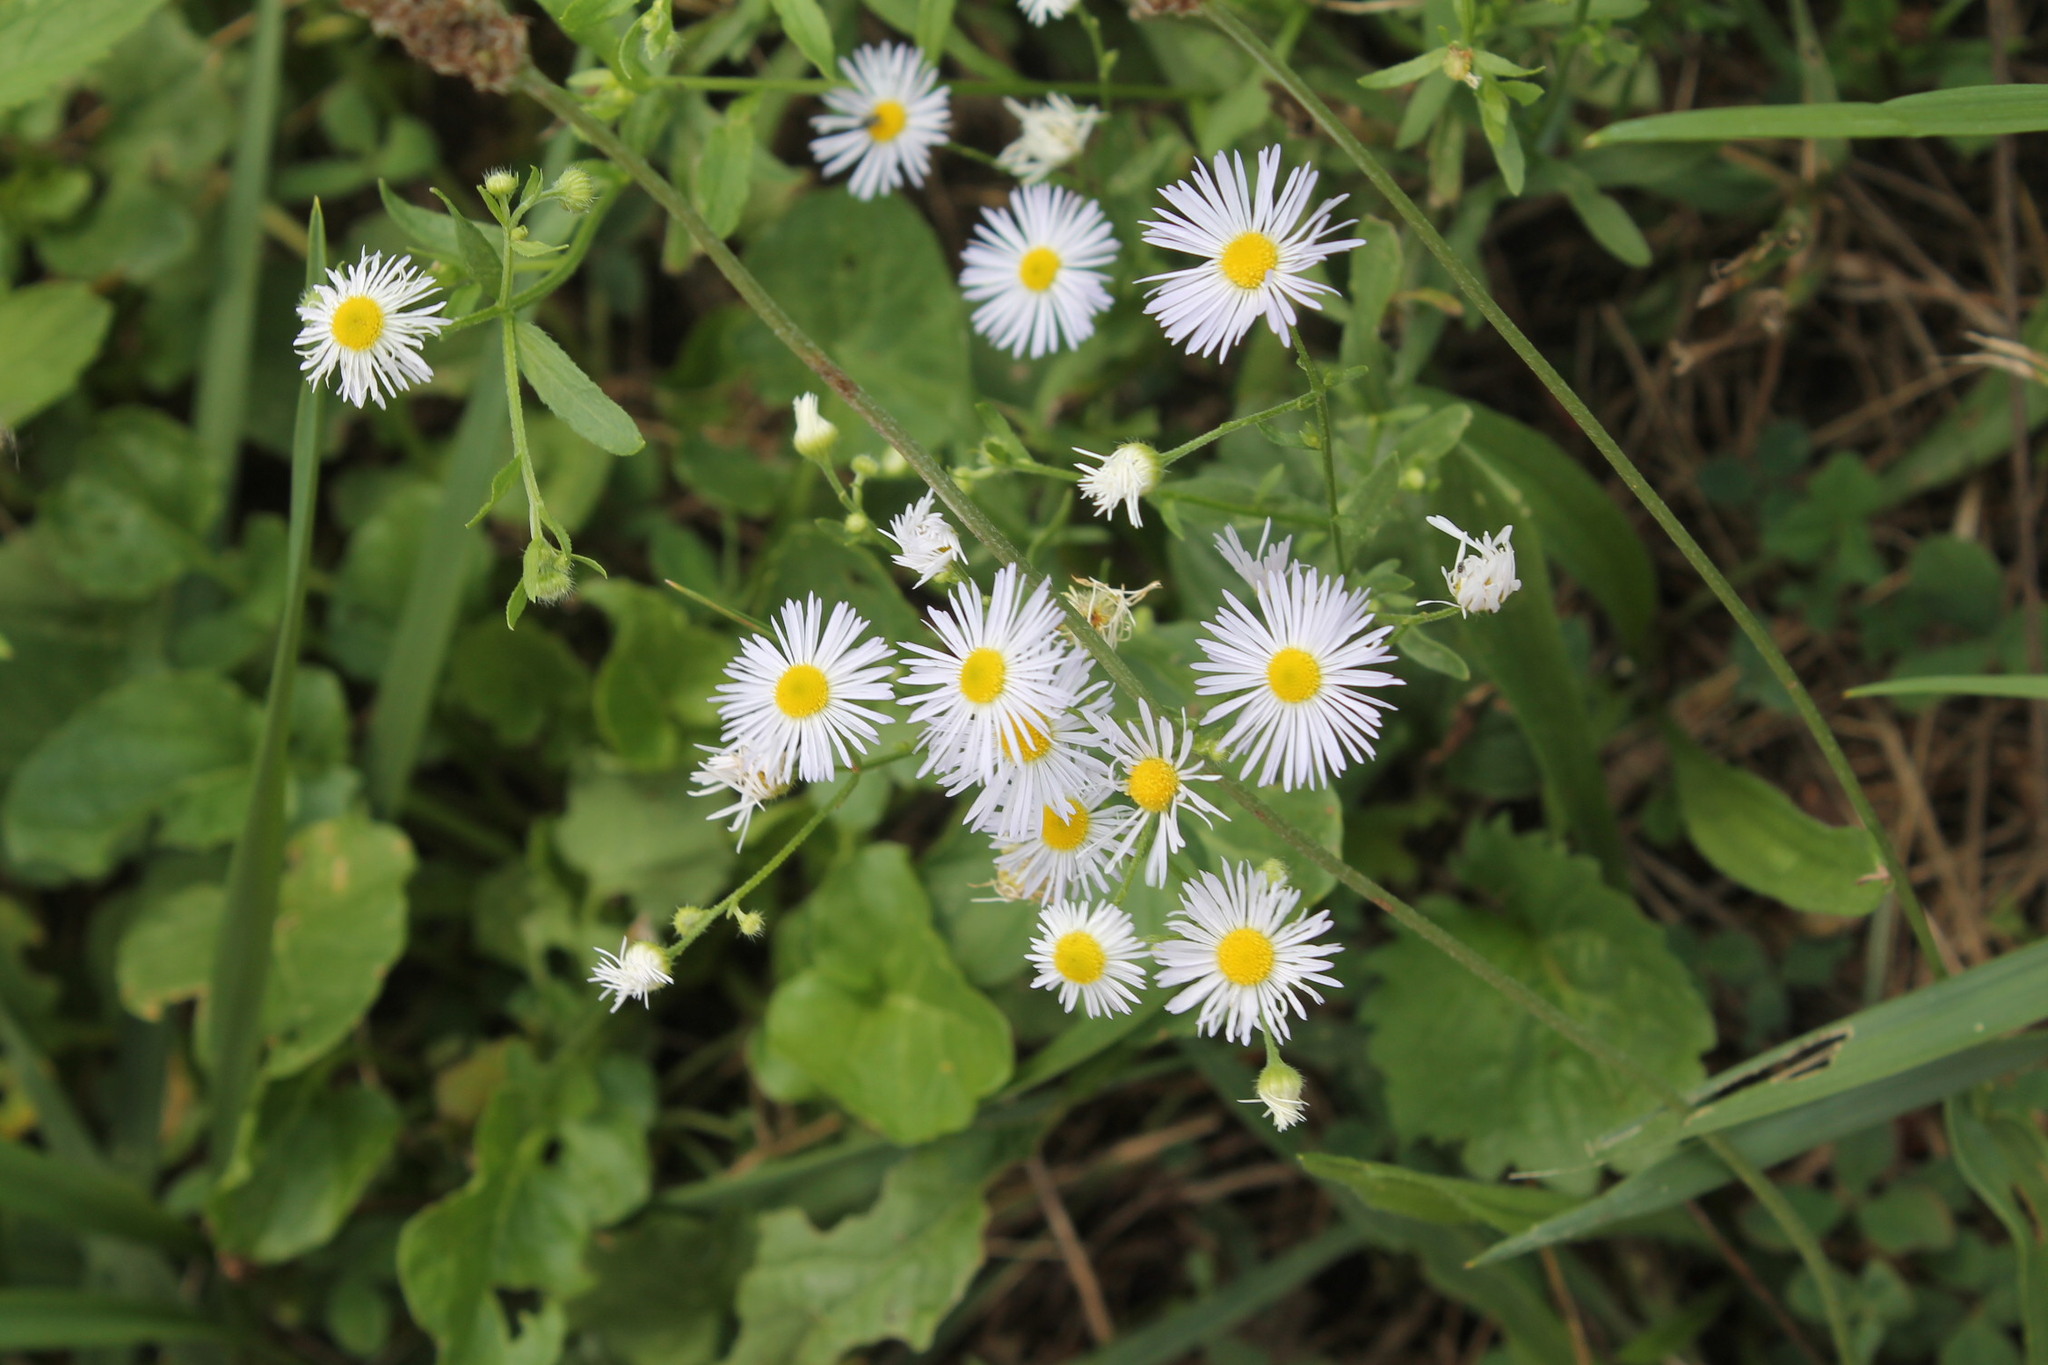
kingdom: Plantae
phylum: Tracheophyta
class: Magnoliopsida
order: Asterales
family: Asteraceae
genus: Erigeron
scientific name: Erigeron annuus
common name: Tall fleabane
